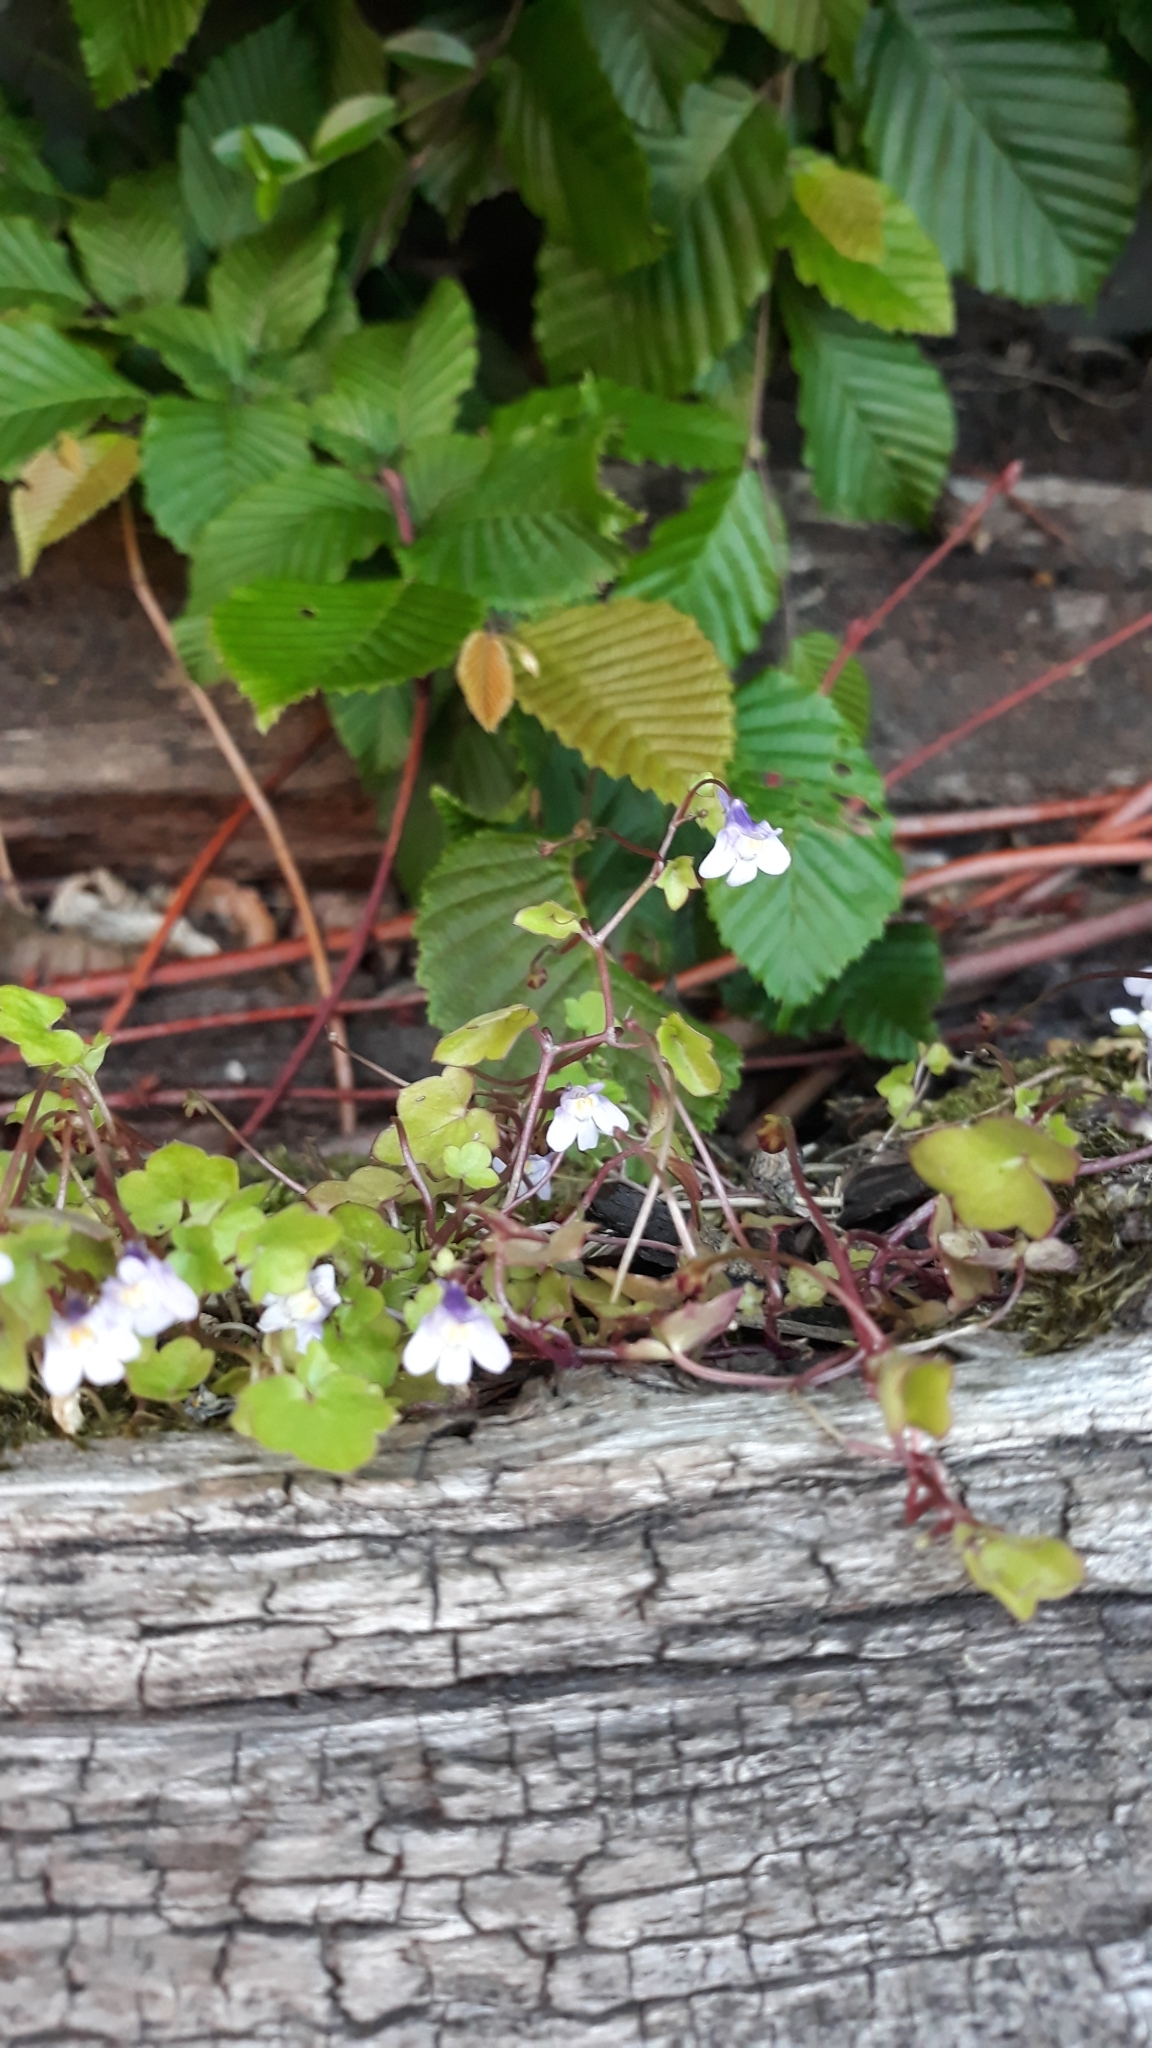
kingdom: Plantae
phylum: Tracheophyta
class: Magnoliopsida
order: Lamiales
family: Plantaginaceae
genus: Cymbalaria
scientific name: Cymbalaria muralis
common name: Ivy-leaved toadflax
